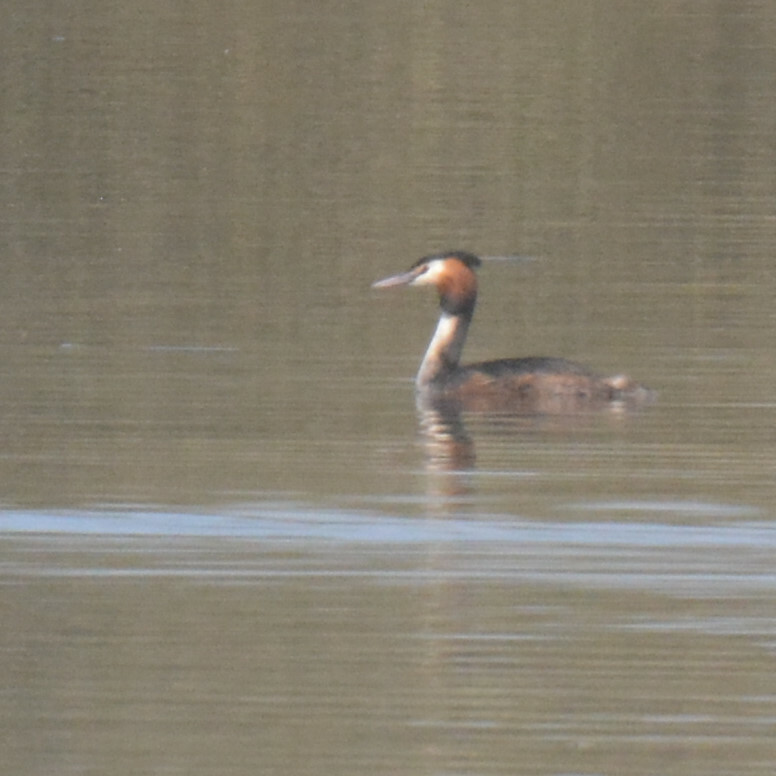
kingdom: Animalia
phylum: Chordata
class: Aves
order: Podicipediformes
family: Podicipedidae
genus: Podiceps
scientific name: Podiceps cristatus
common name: Great crested grebe
